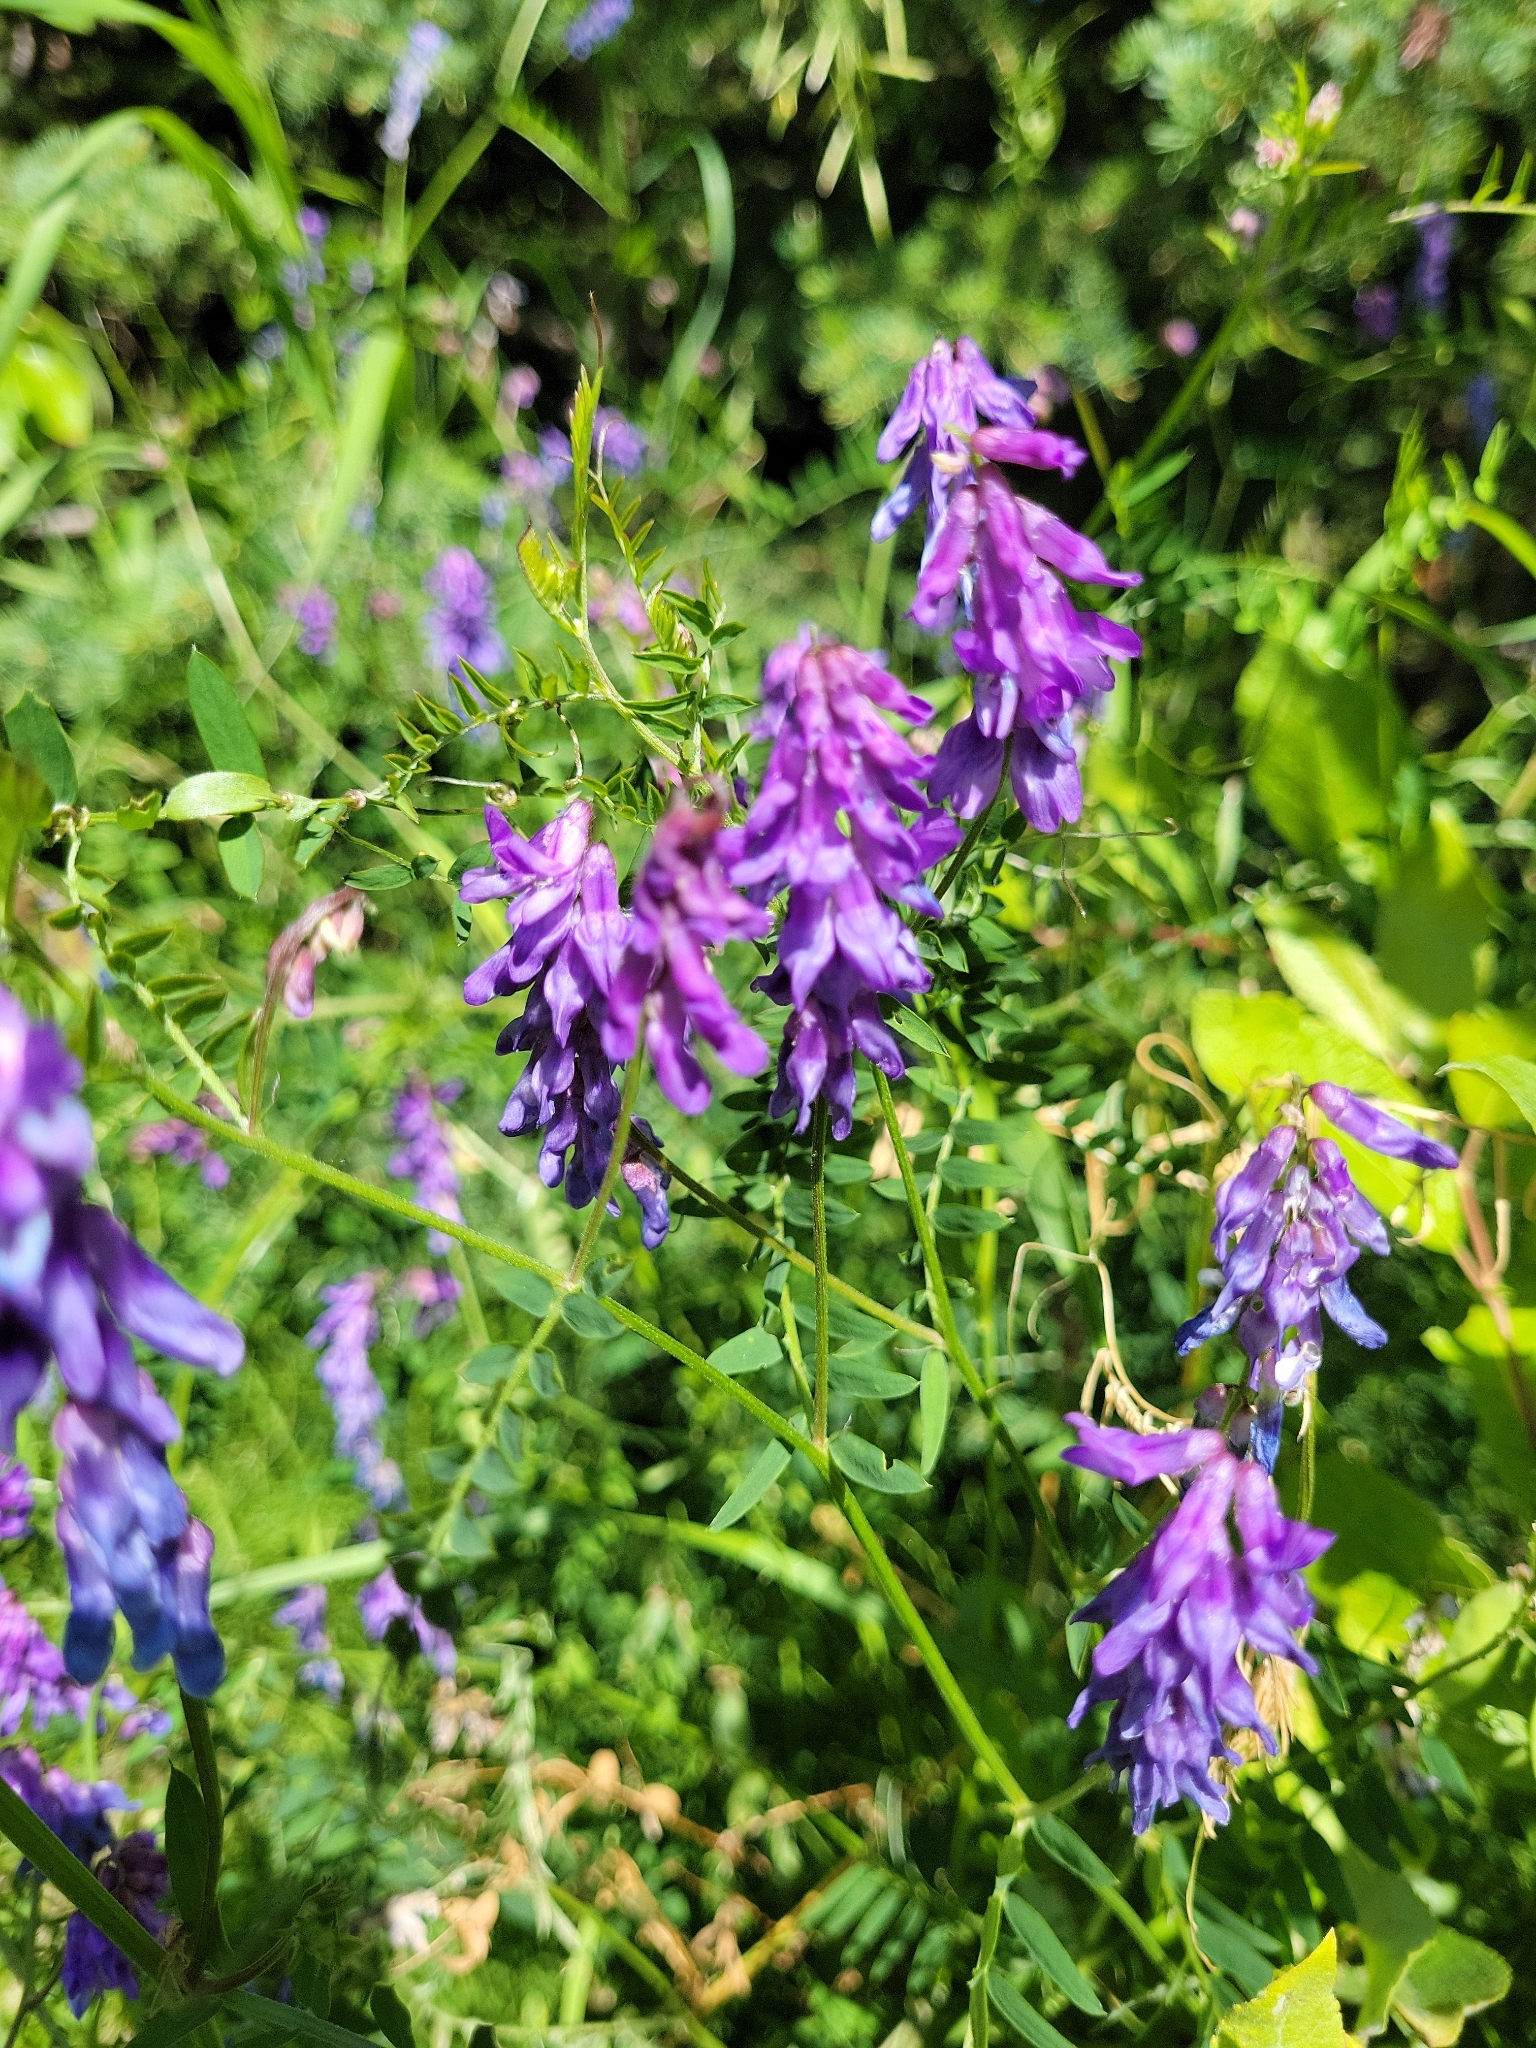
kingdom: Plantae
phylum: Tracheophyta
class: Magnoliopsida
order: Fabales
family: Fabaceae
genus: Vicia
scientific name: Vicia cracca
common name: Bird vetch
